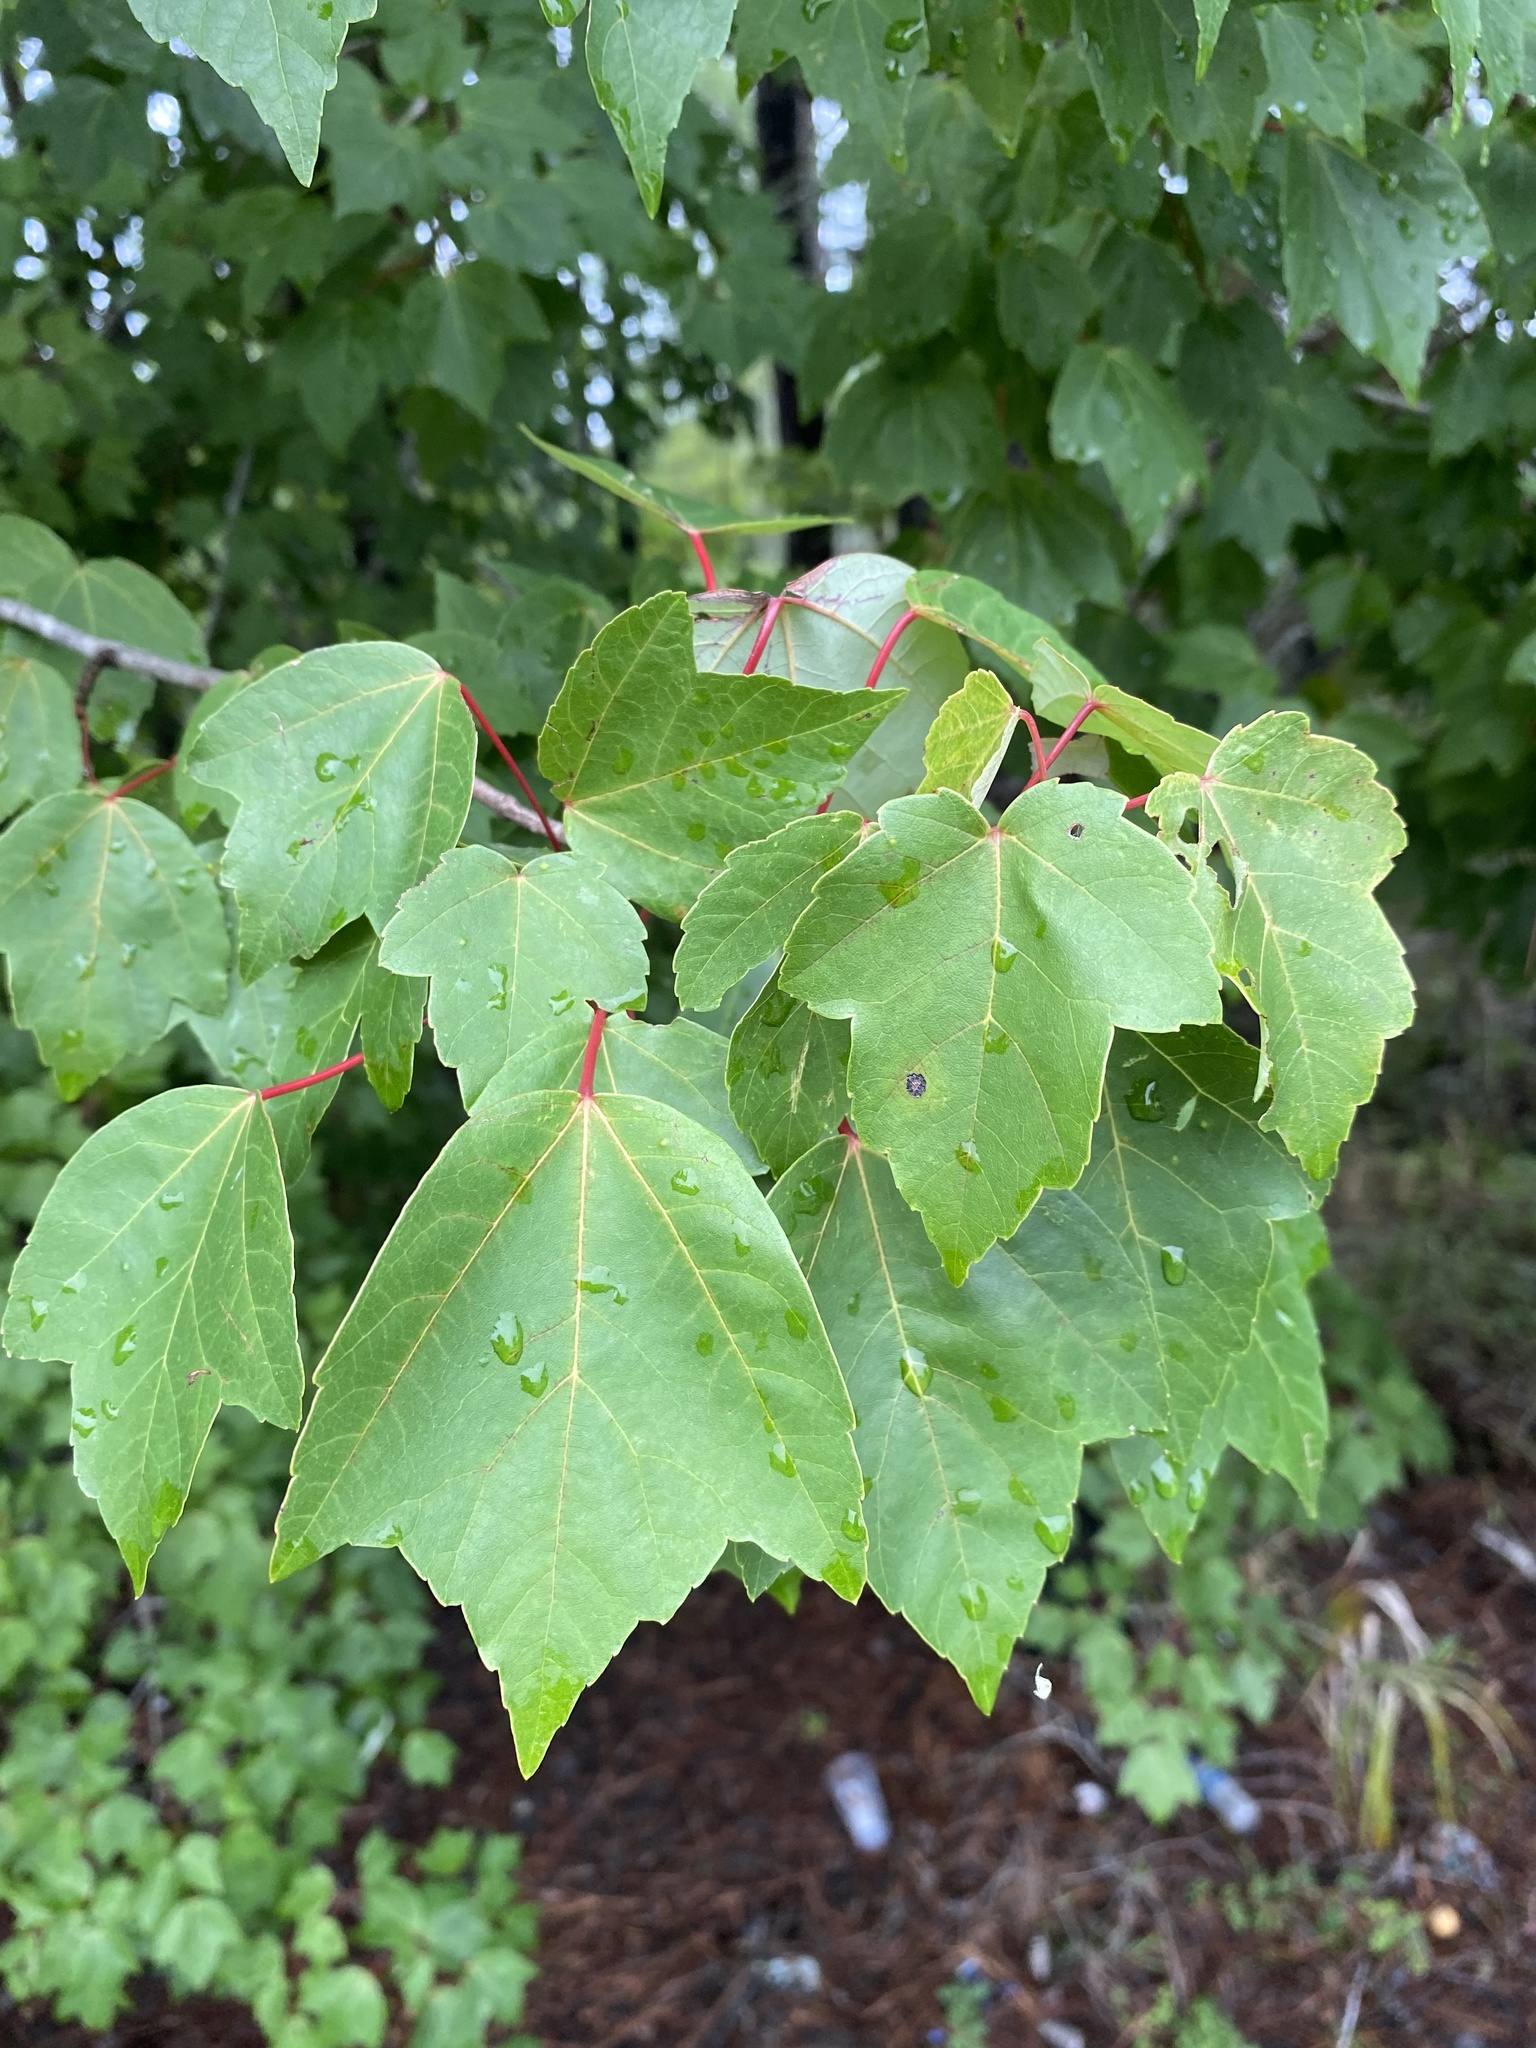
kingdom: Plantae
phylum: Tracheophyta
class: Magnoliopsida
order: Sapindales
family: Sapindaceae
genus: Acer
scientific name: Acer rubrum
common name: Red maple
